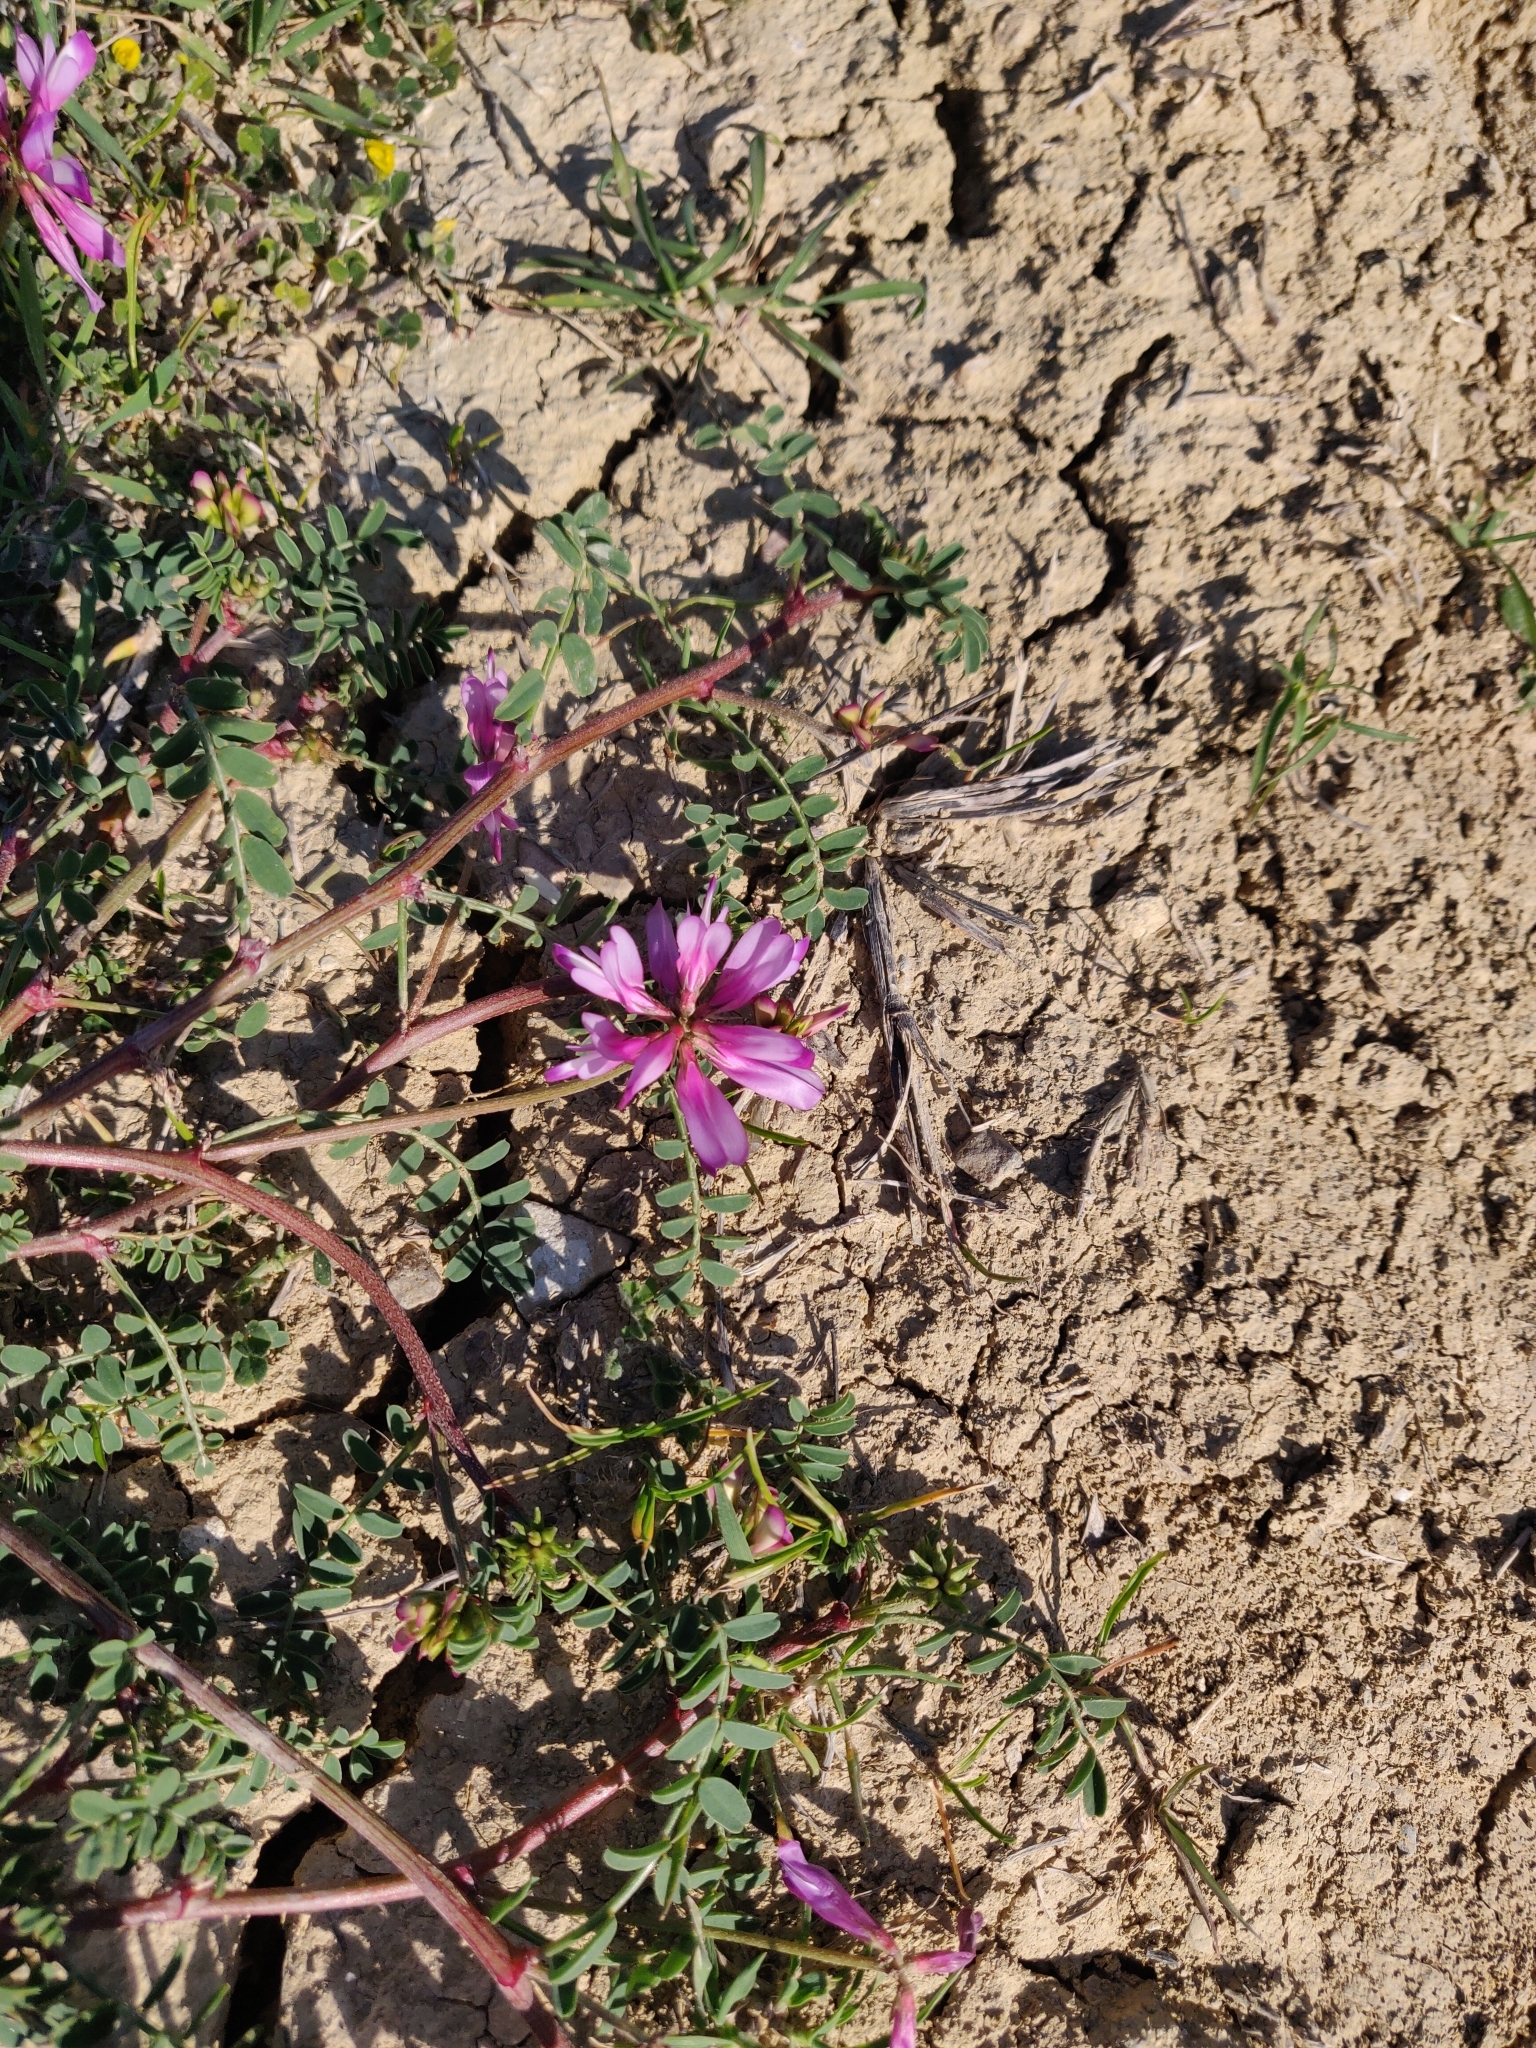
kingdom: Plantae
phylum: Tracheophyta
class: Magnoliopsida
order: Fabales
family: Fabaceae
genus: Sulla
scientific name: Sulla glomerata
